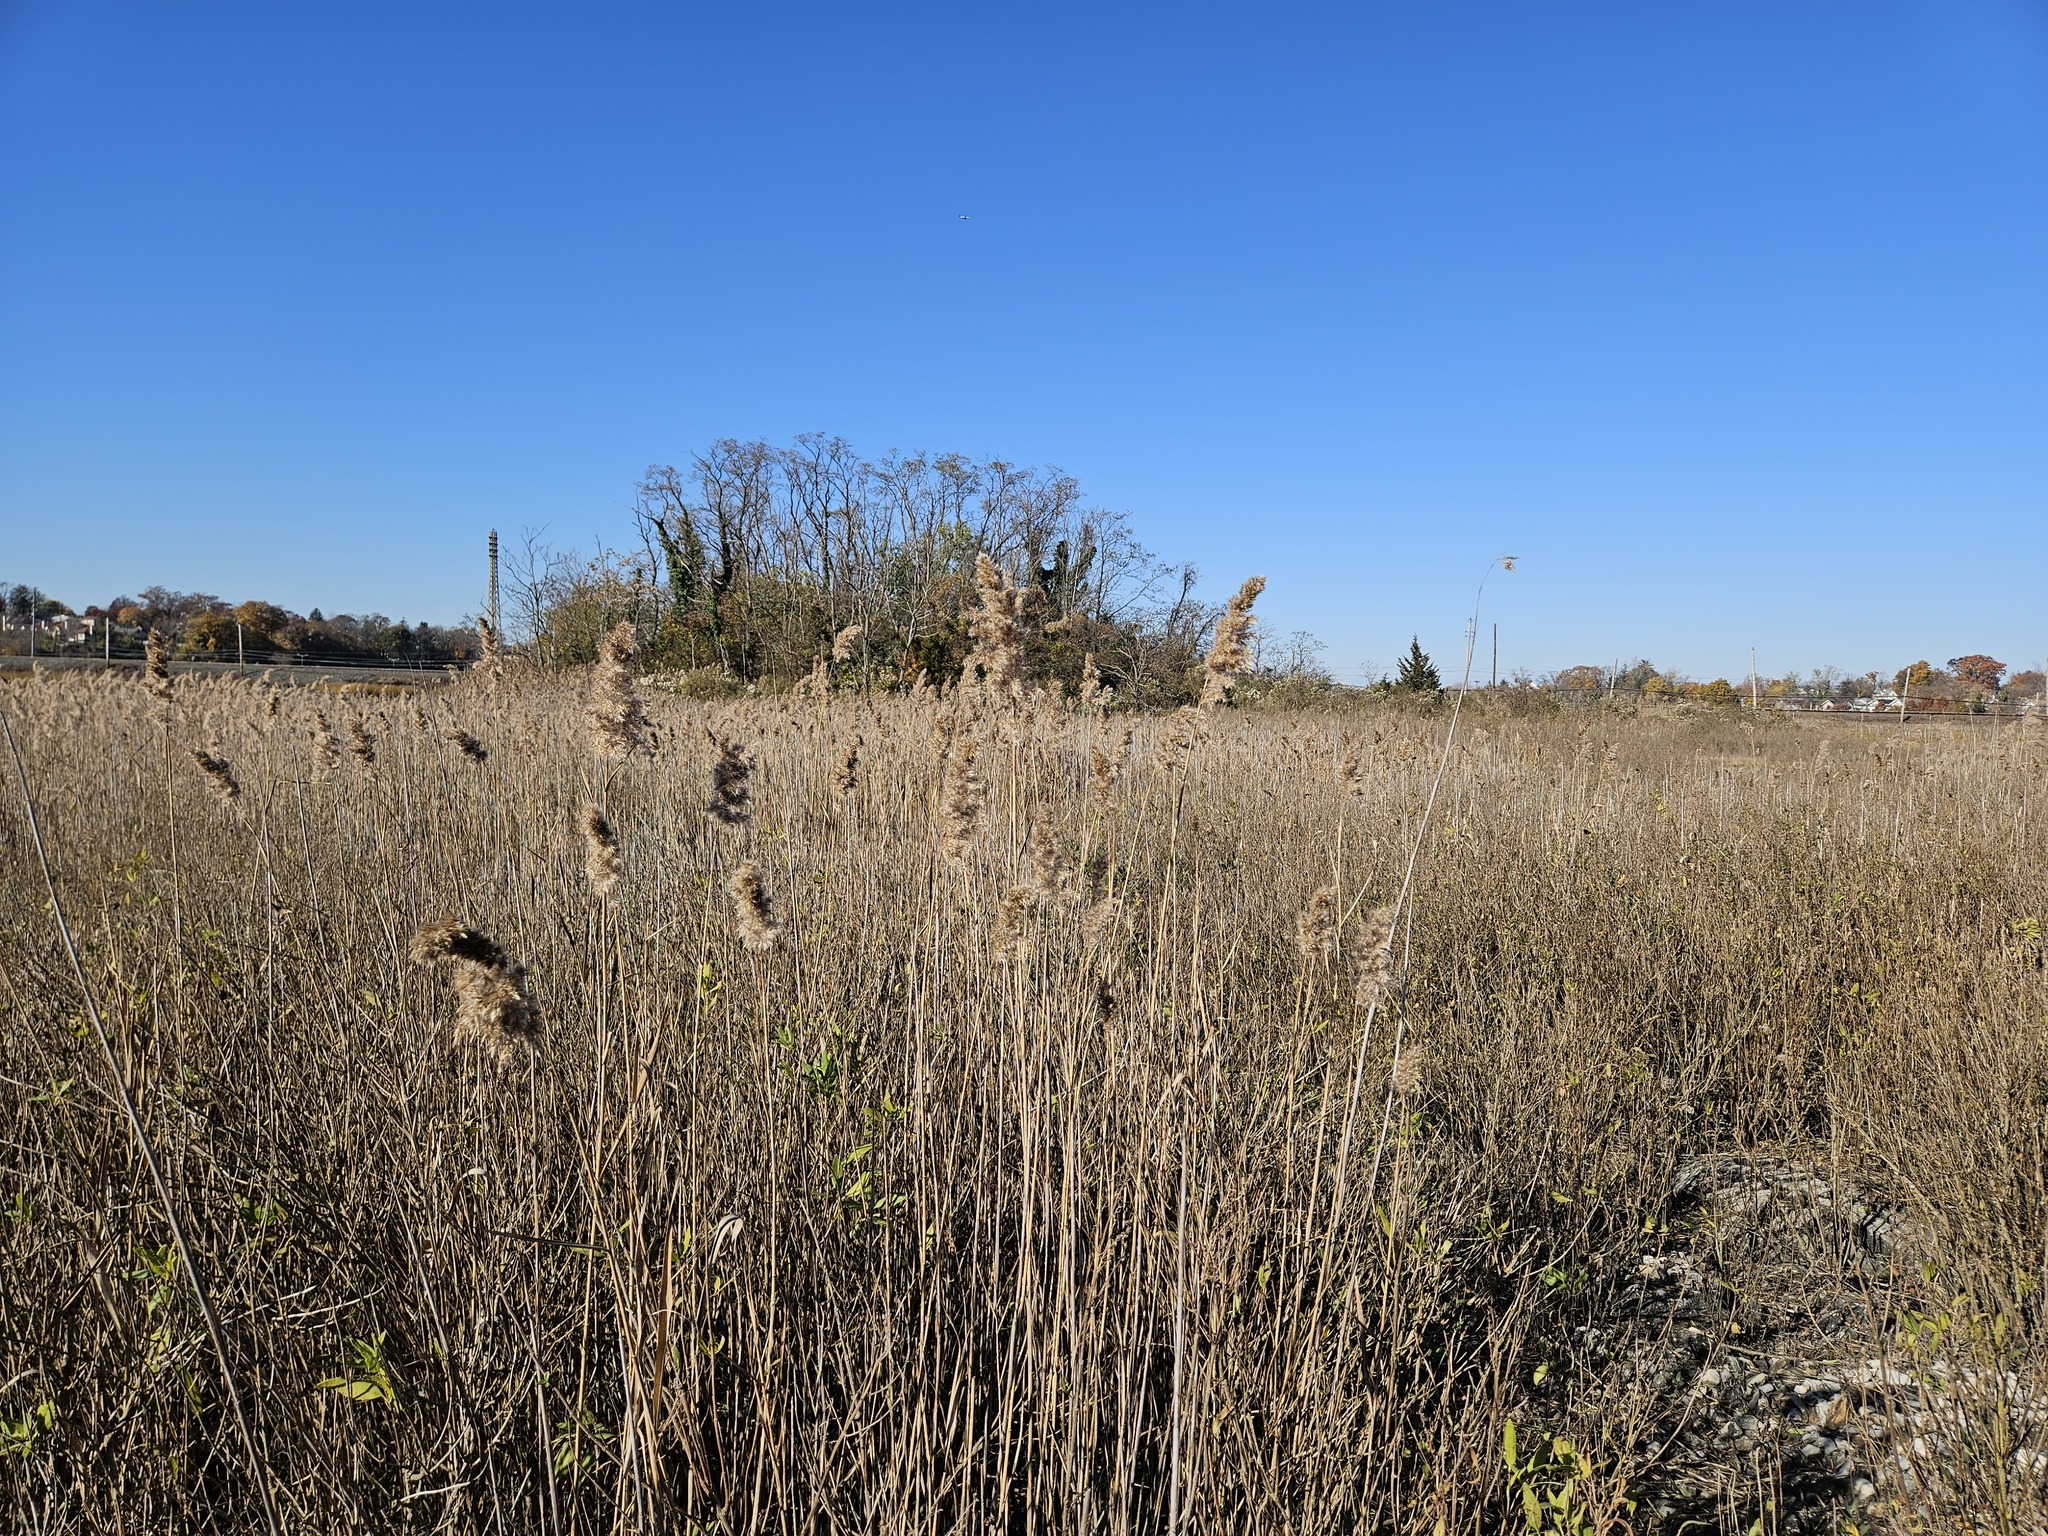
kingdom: Plantae
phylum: Tracheophyta
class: Liliopsida
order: Poales
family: Poaceae
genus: Phragmites
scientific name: Phragmites australis
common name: Common reed
